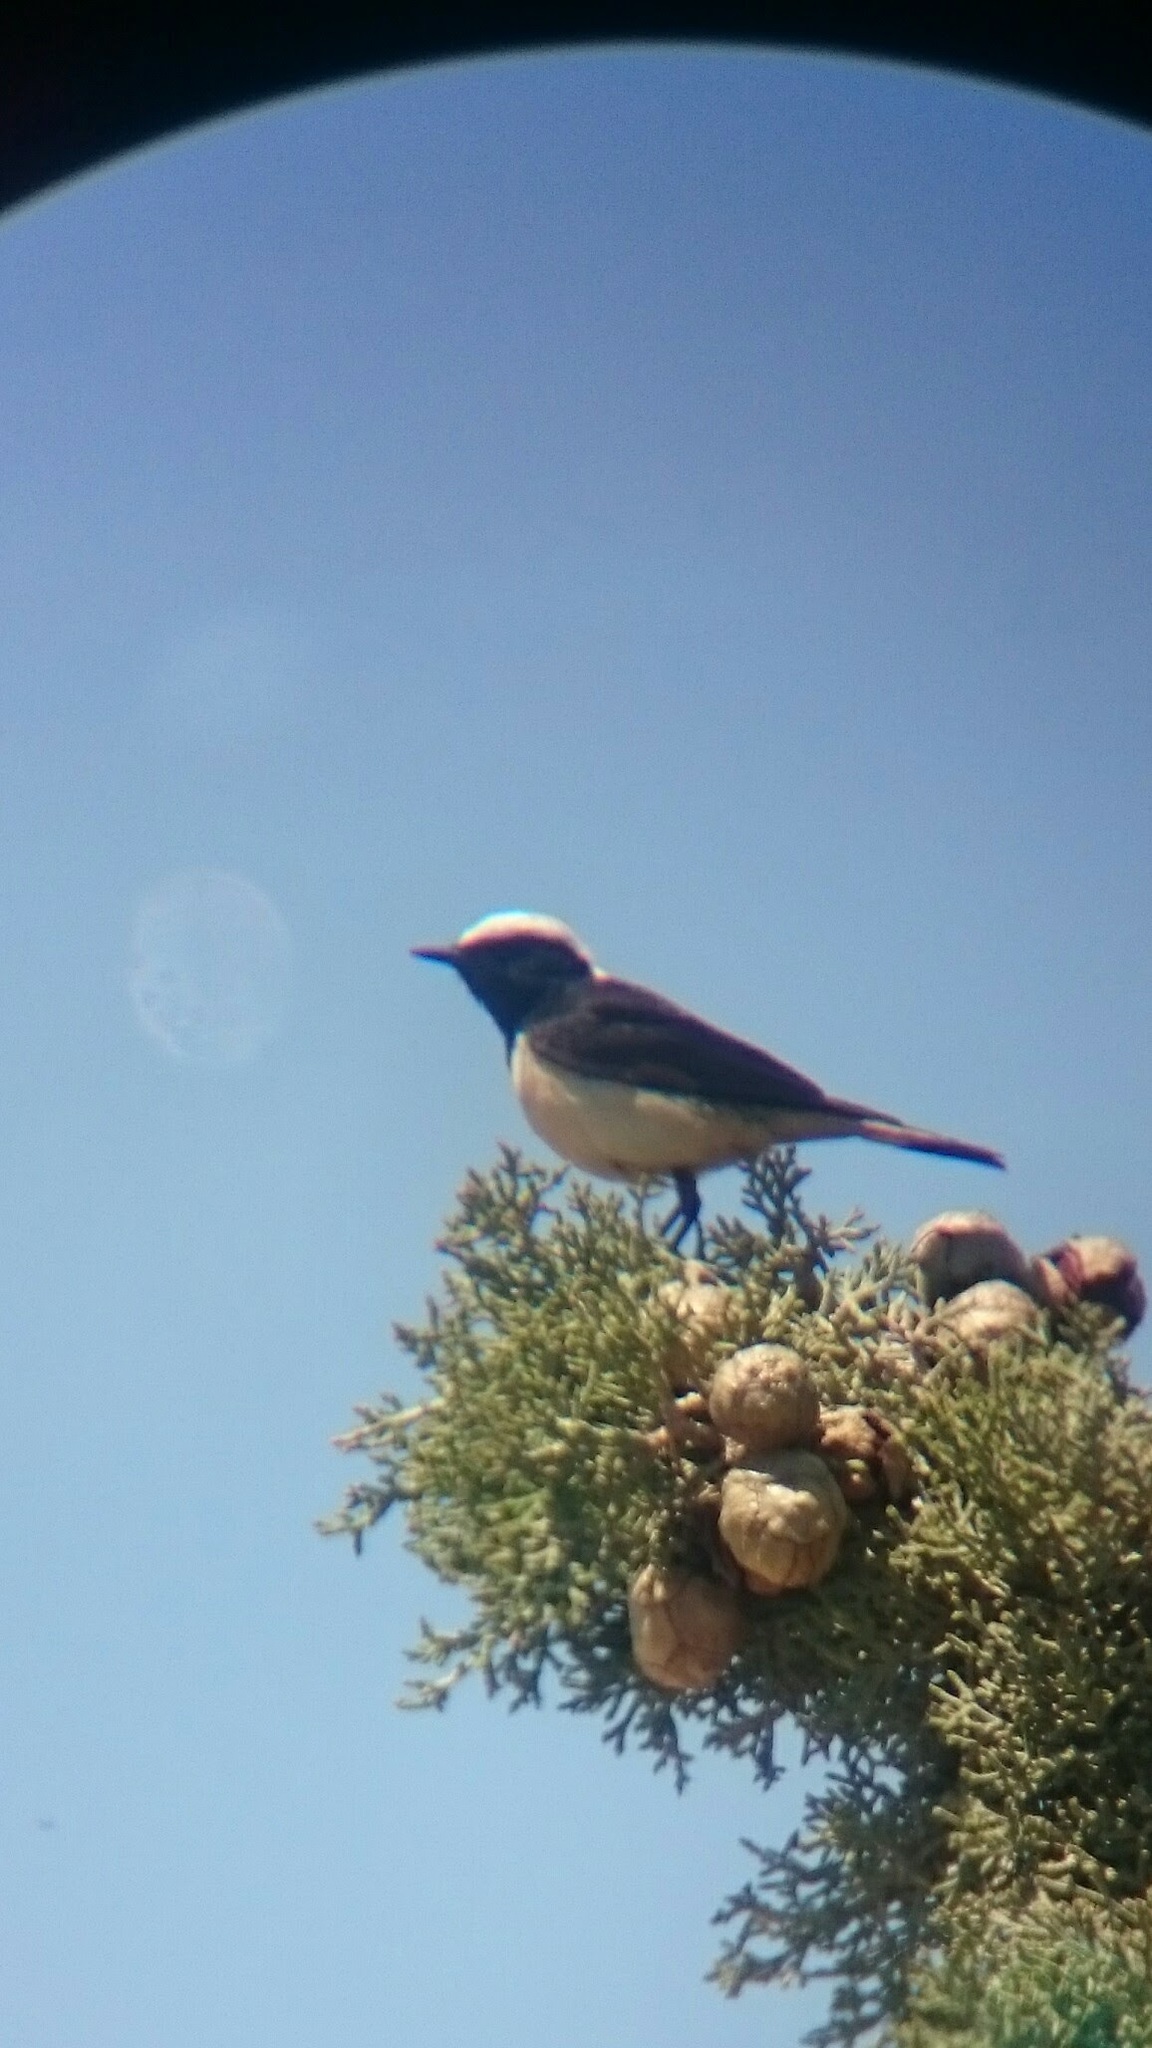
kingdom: Animalia
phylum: Chordata
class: Aves
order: Passeriformes
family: Muscicapidae
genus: Oenanthe
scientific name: Oenanthe cypriaca
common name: Cyprus wheatear
